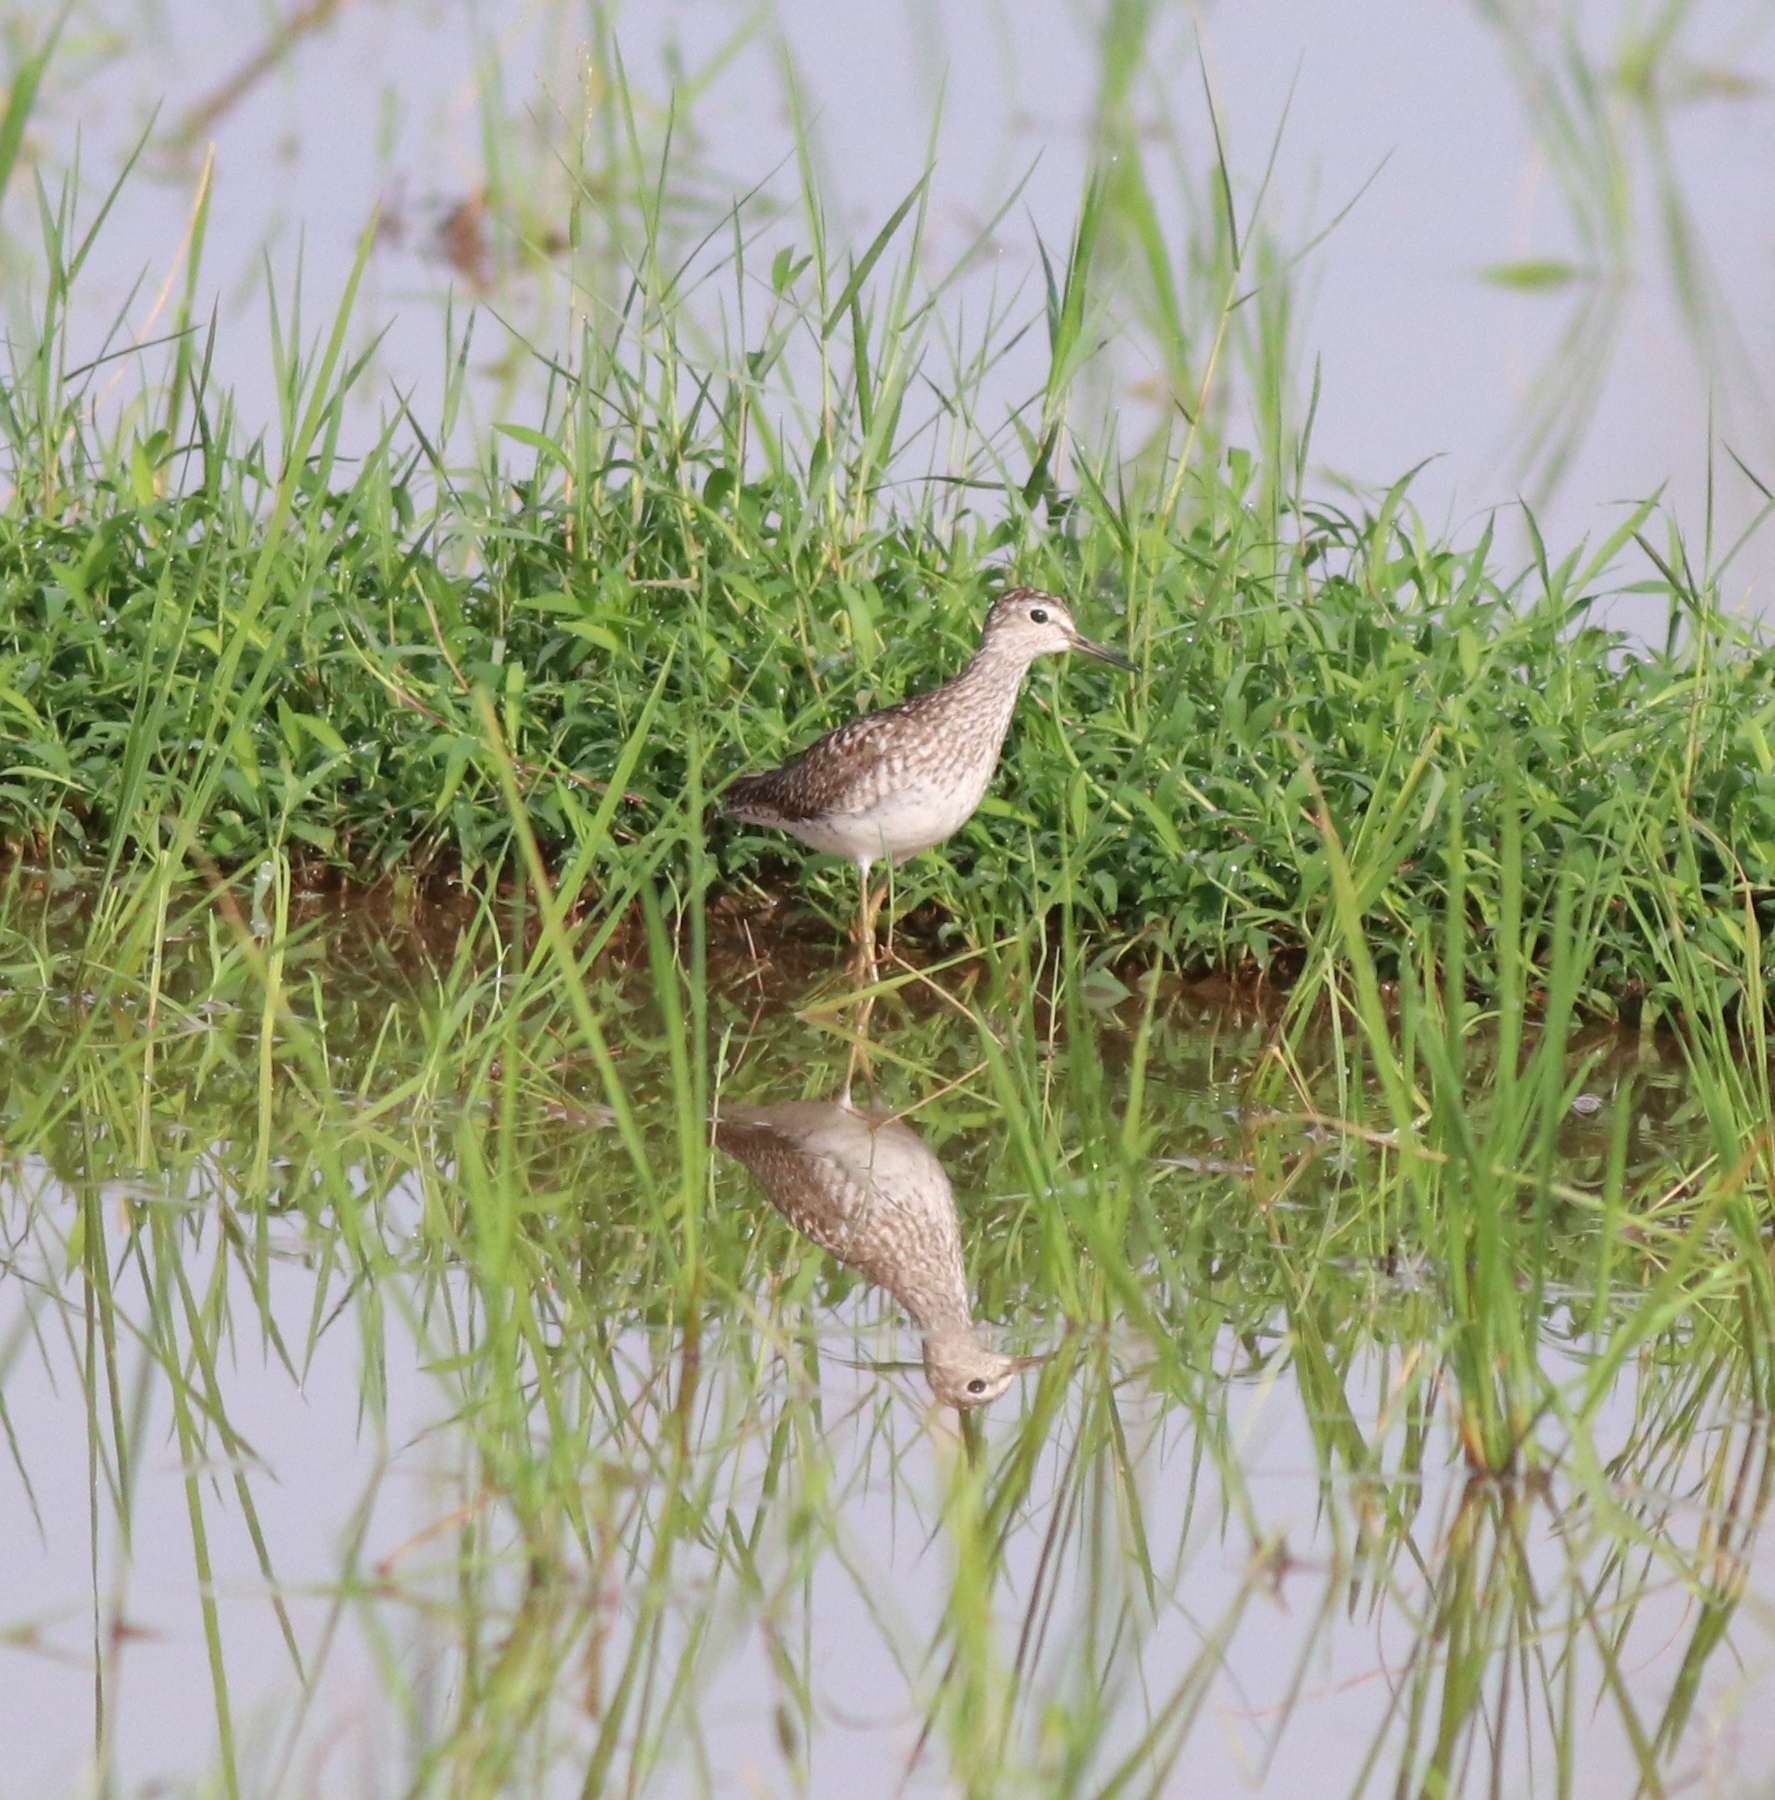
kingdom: Animalia
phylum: Chordata
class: Aves
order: Charadriiformes
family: Scolopacidae
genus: Tringa
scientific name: Tringa glareola
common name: Wood sandpiper
